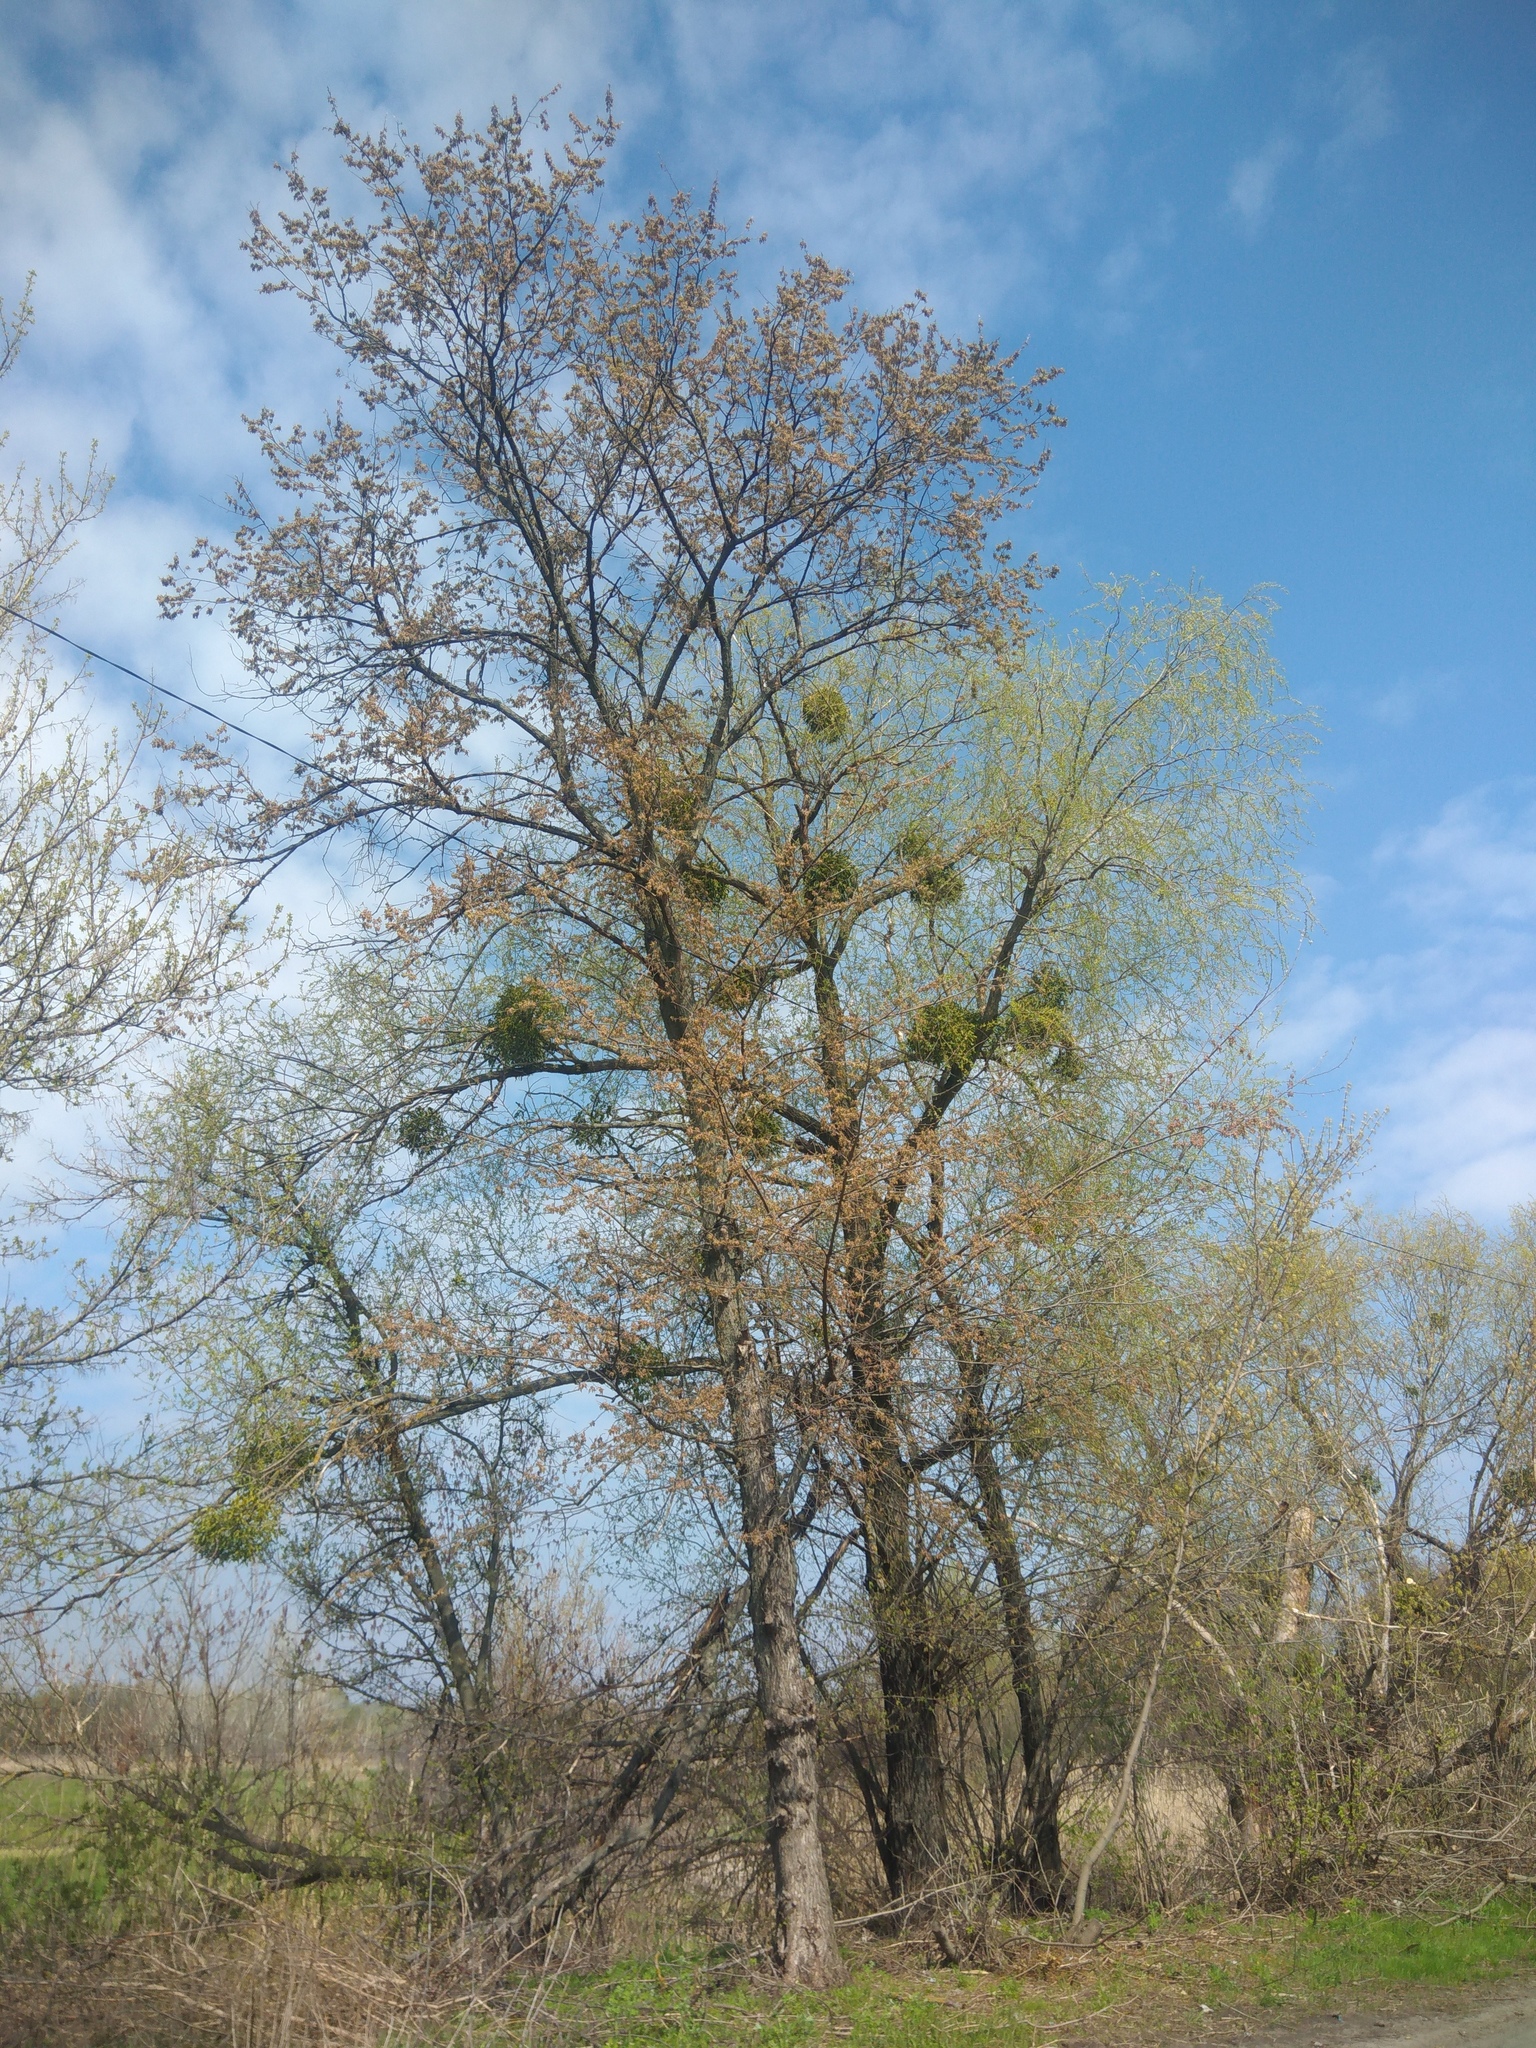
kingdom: Plantae
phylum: Tracheophyta
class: Magnoliopsida
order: Santalales
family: Viscaceae
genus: Viscum
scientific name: Viscum album
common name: Mistletoe
